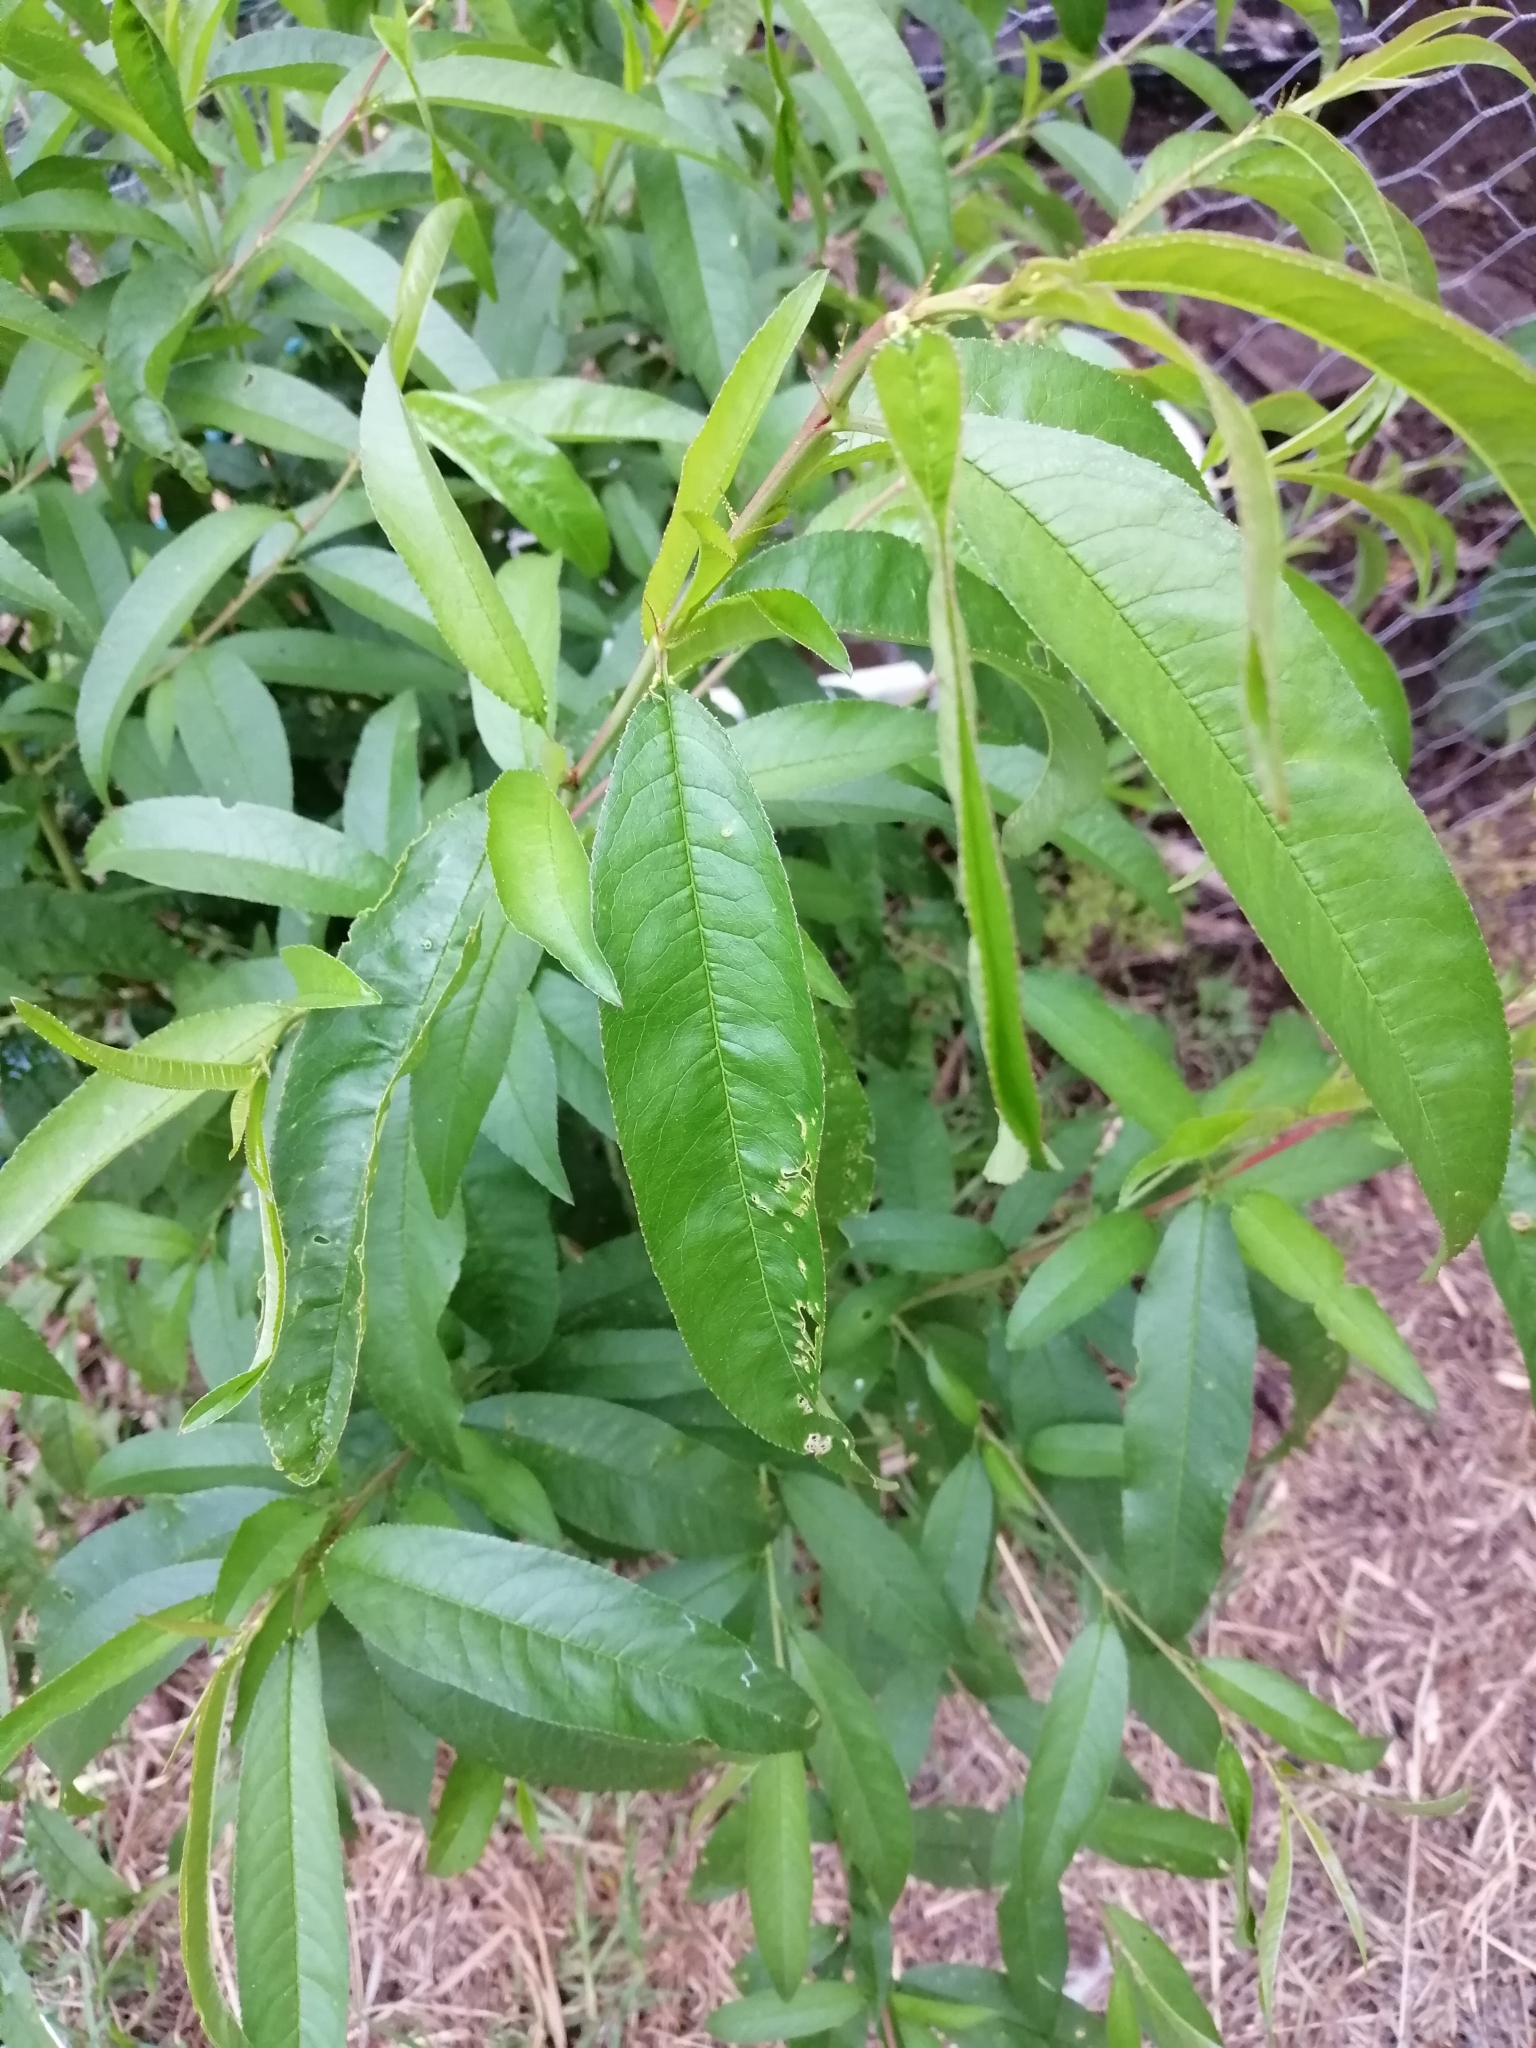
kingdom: Plantae
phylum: Tracheophyta
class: Magnoliopsida
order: Rosales
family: Rosaceae
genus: Prunus
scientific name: Prunus persica
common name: Peach
